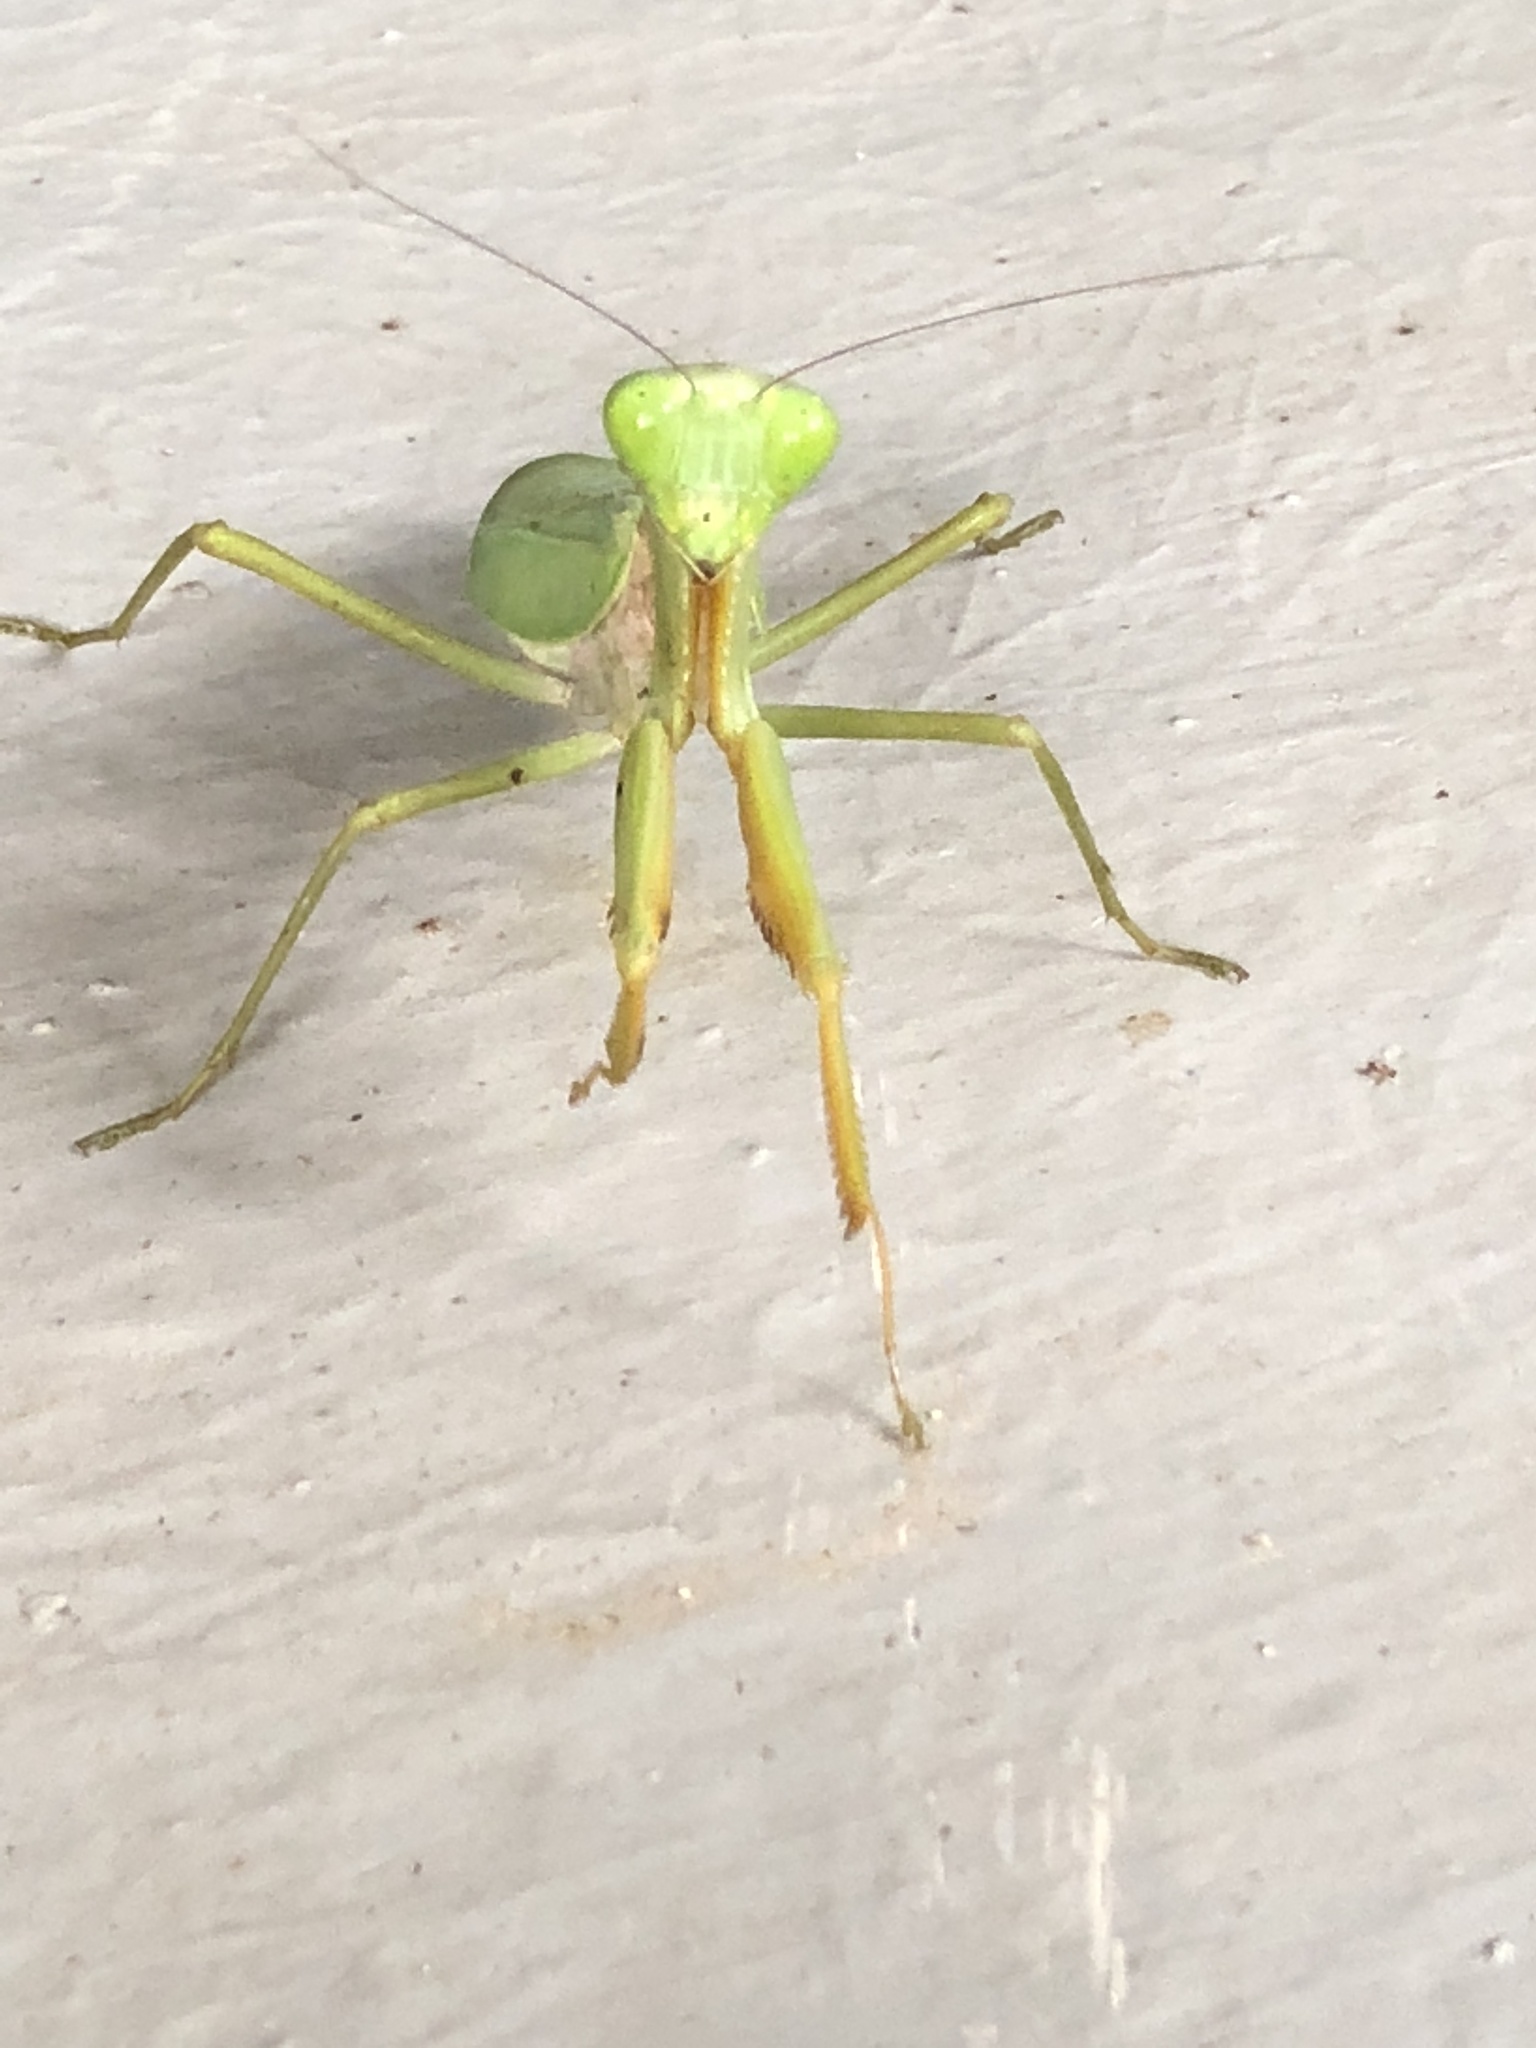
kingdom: Animalia
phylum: Arthropoda
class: Insecta
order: Mantodea
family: Mantidae
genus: Hierodula
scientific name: Hierodula venosa
